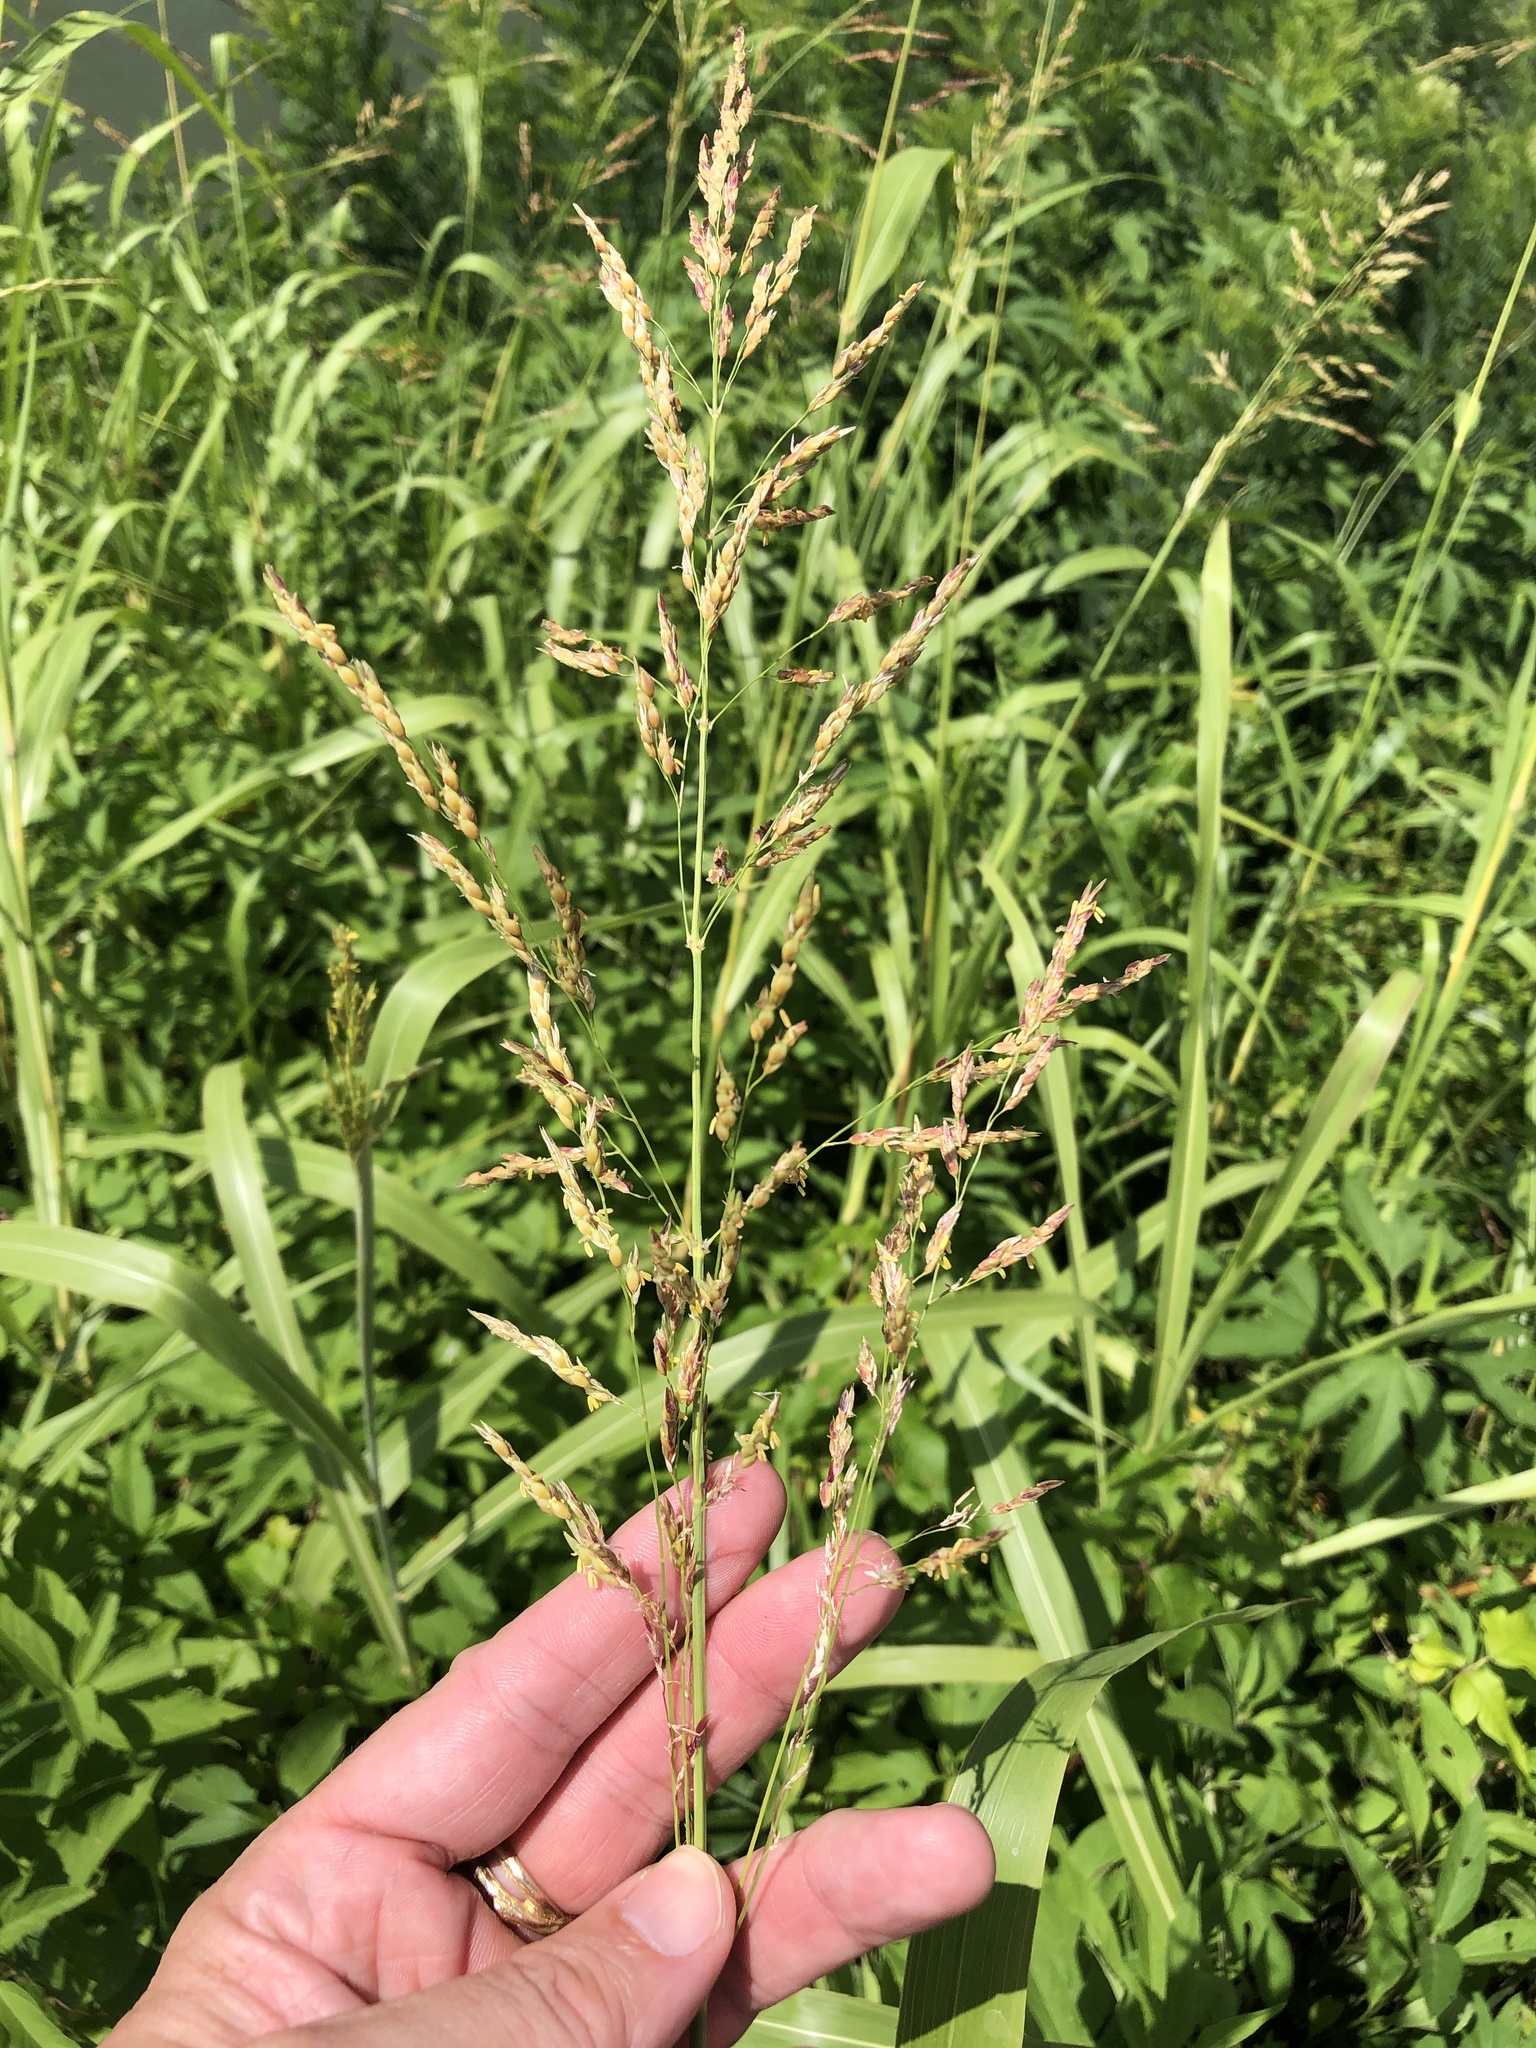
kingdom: Plantae
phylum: Tracheophyta
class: Liliopsida
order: Poales
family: Poaceae
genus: Sorghum
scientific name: Sorghum halepense
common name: Johnson-grass
